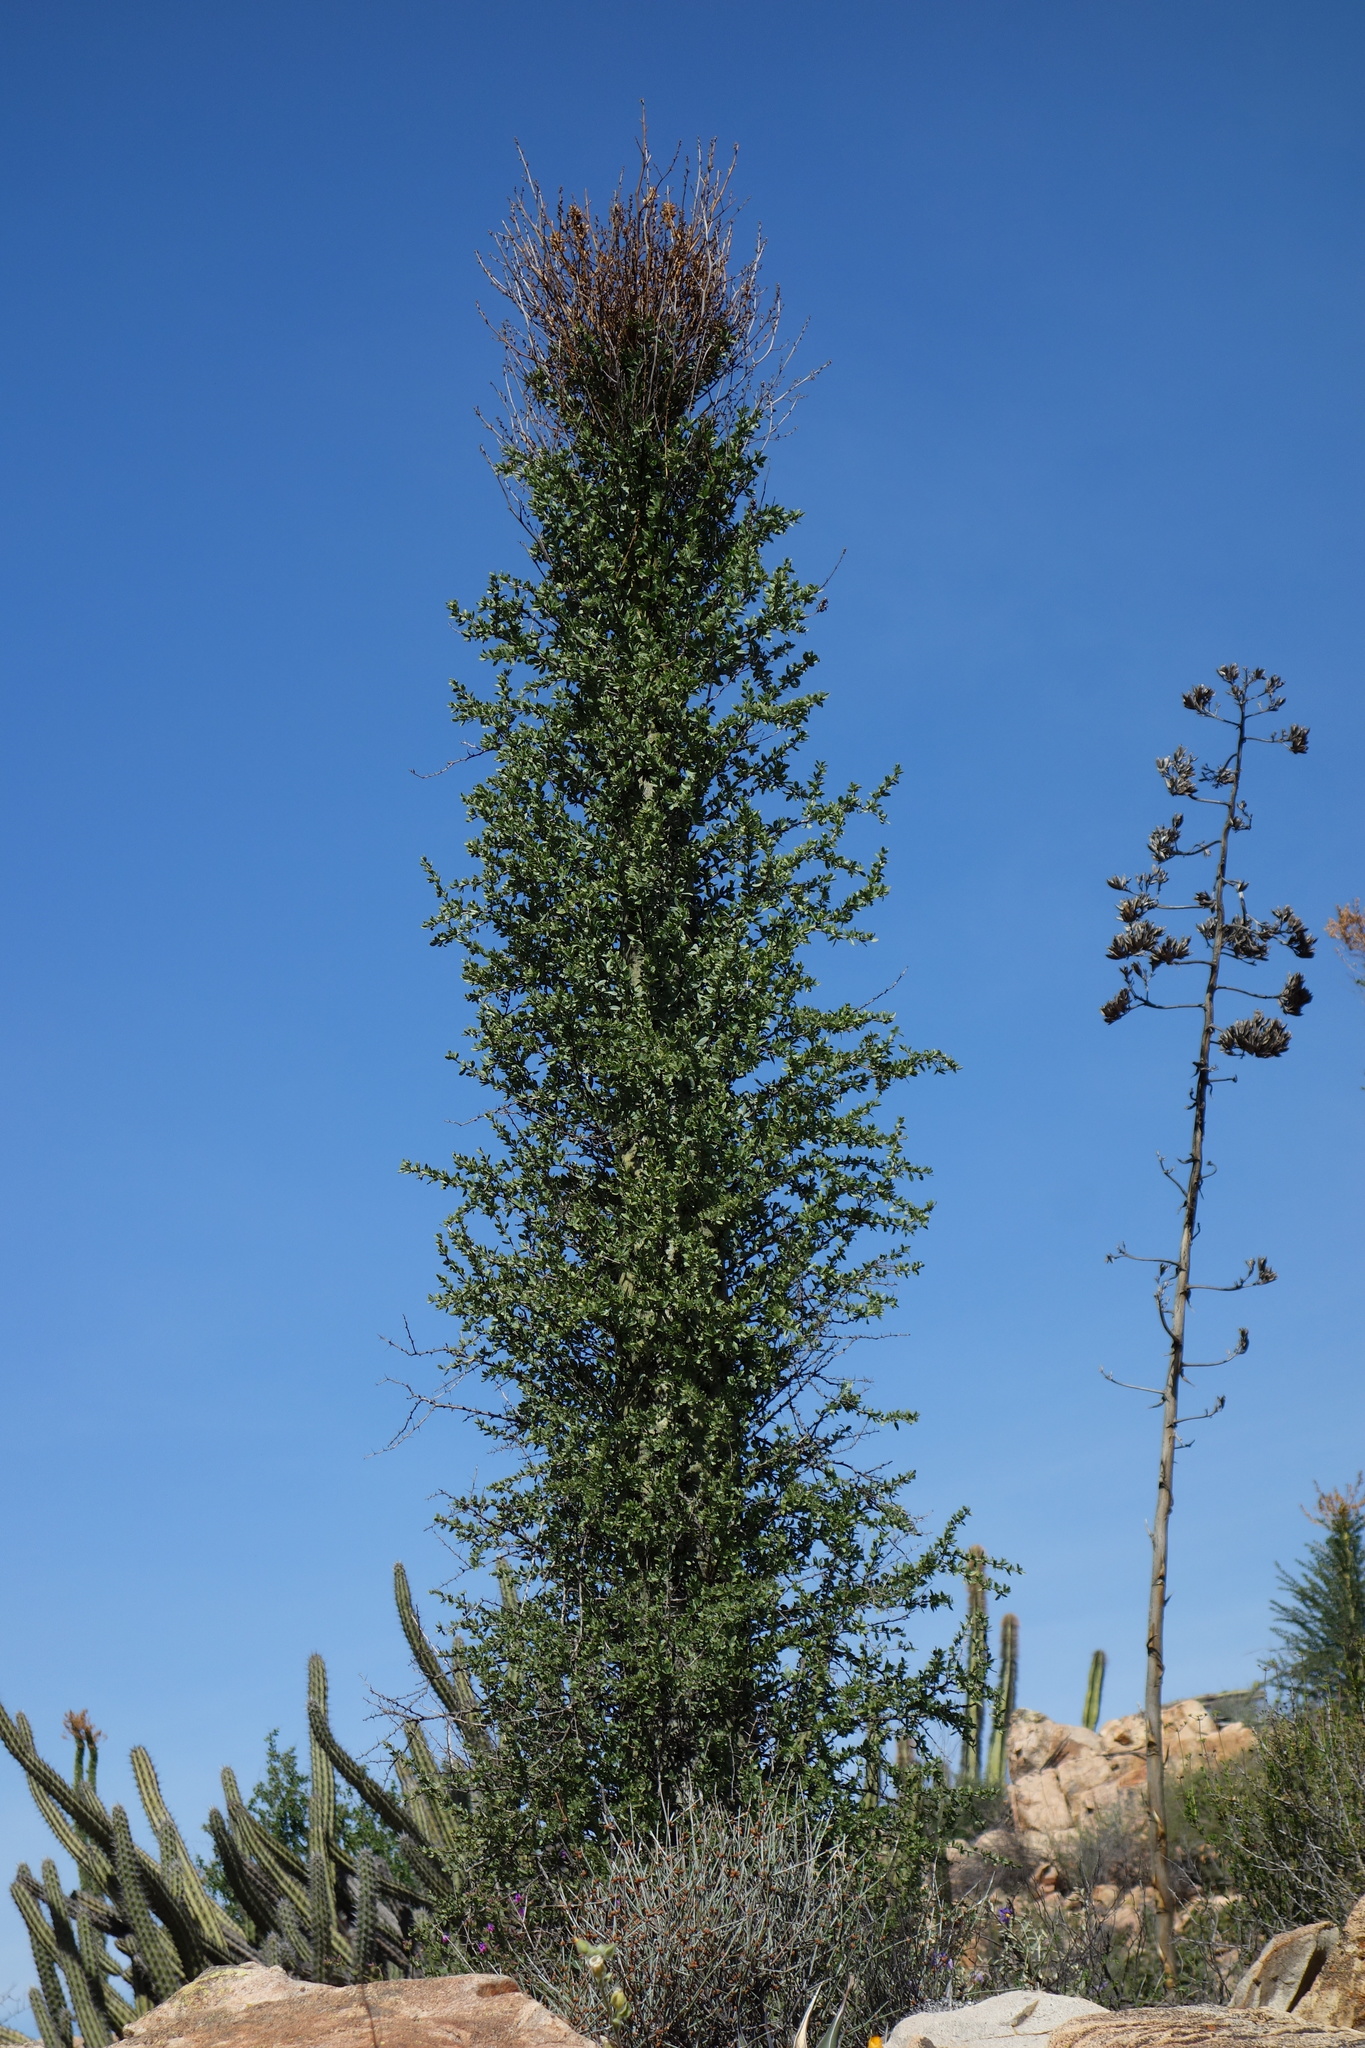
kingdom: Plantae
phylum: Tracheophyta
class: Magnoliopsida
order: Ericales
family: Fouquieriaceae
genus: Fouquieria
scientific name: Fouquieria columnaris
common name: Boojumtree
